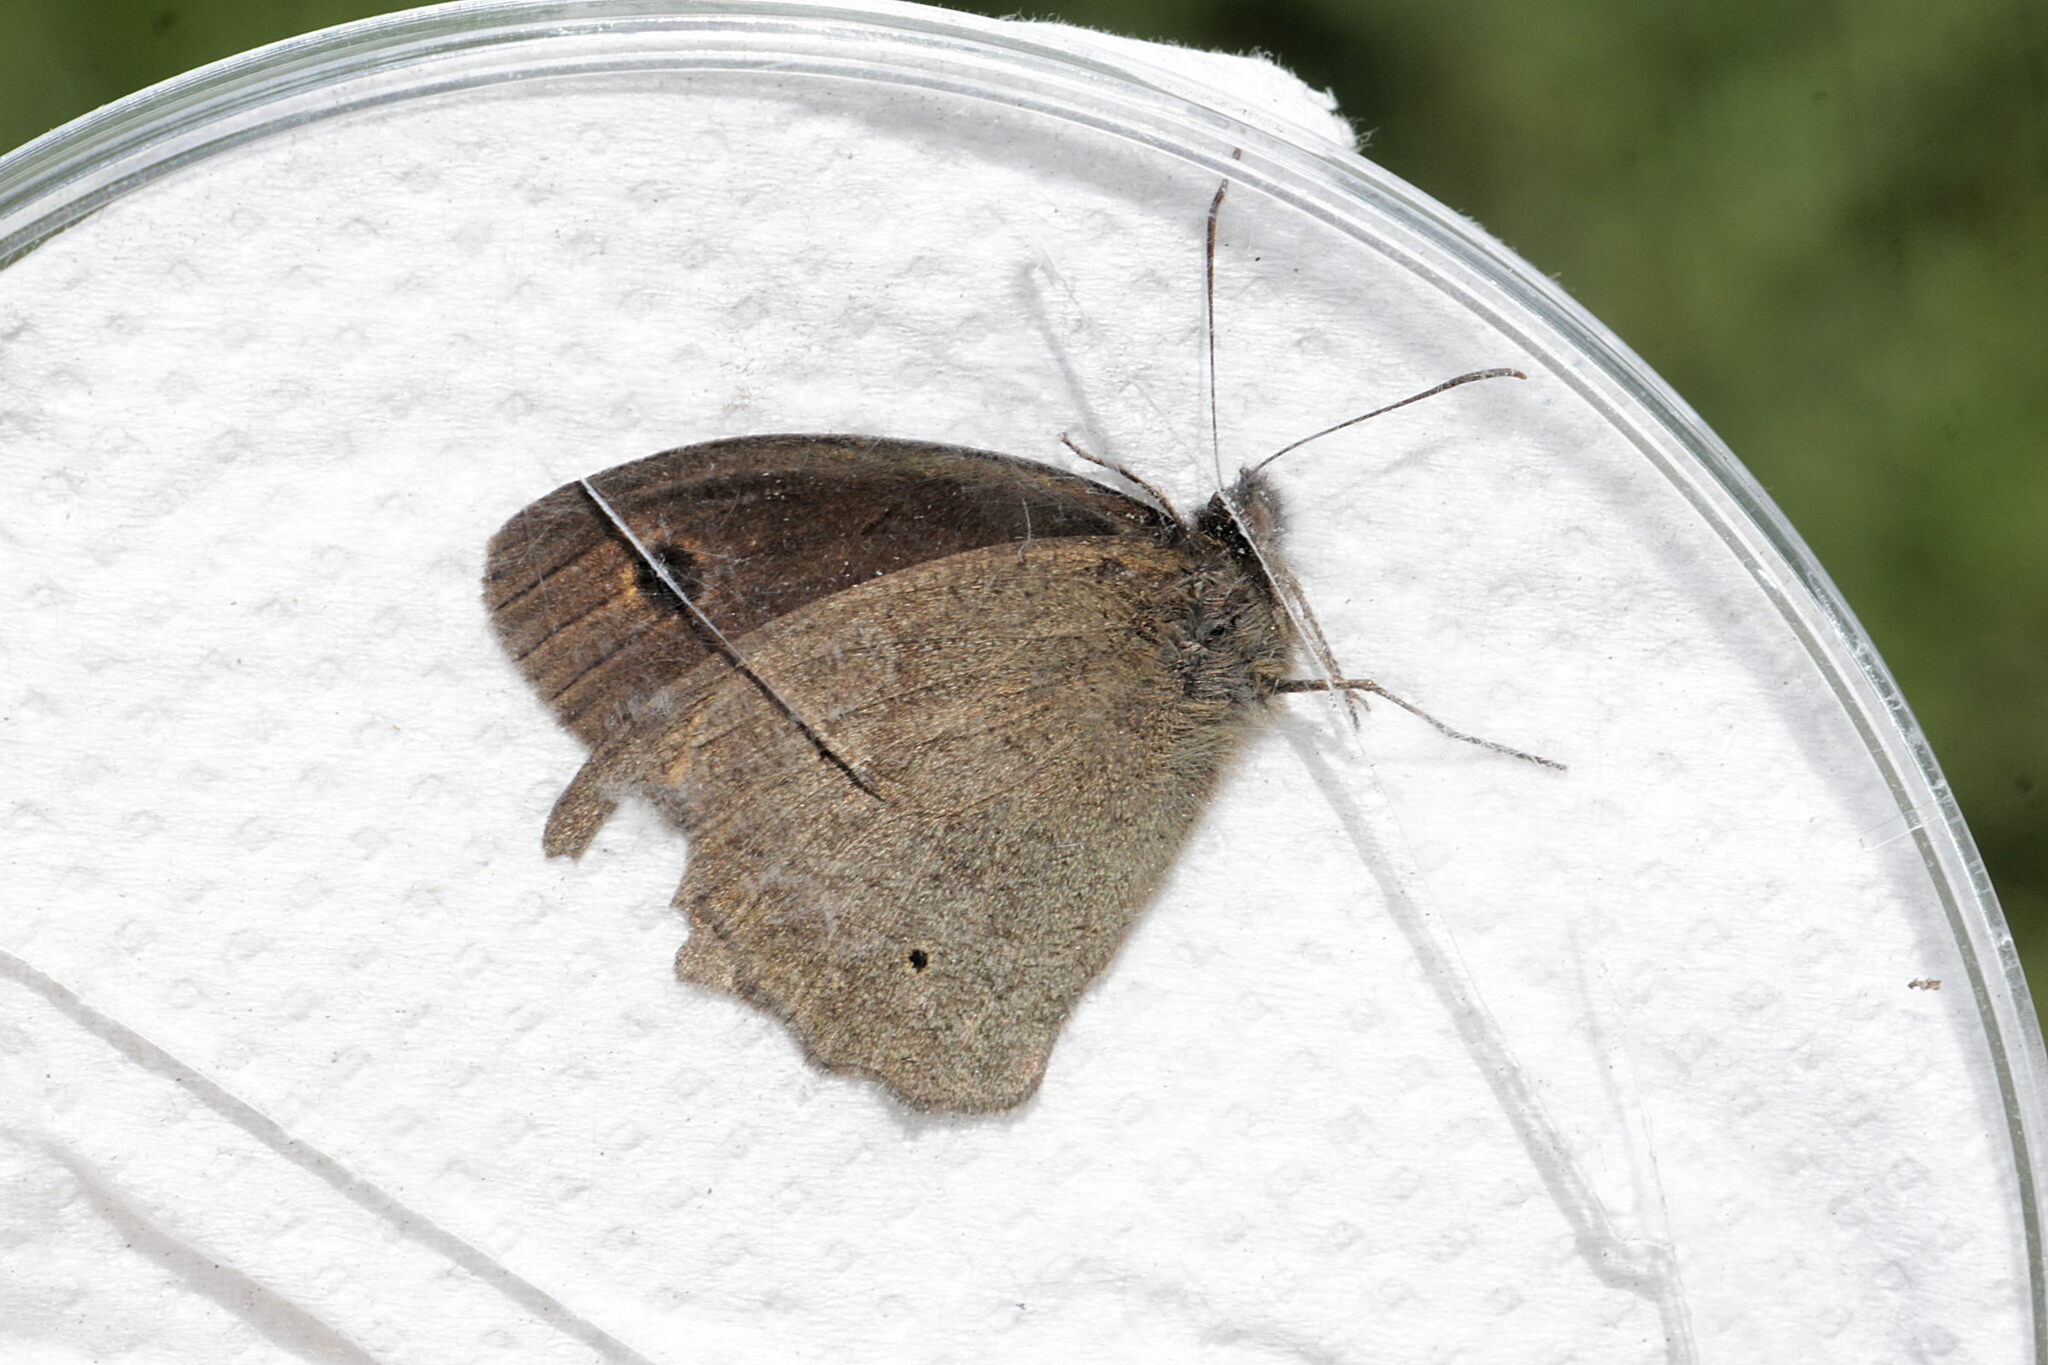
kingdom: Animalia
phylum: Arthropoda
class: Insecta
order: Lepidoptera
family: Nymphalidae
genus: Maniola
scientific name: Maniola jurtina
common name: Meadow brown
